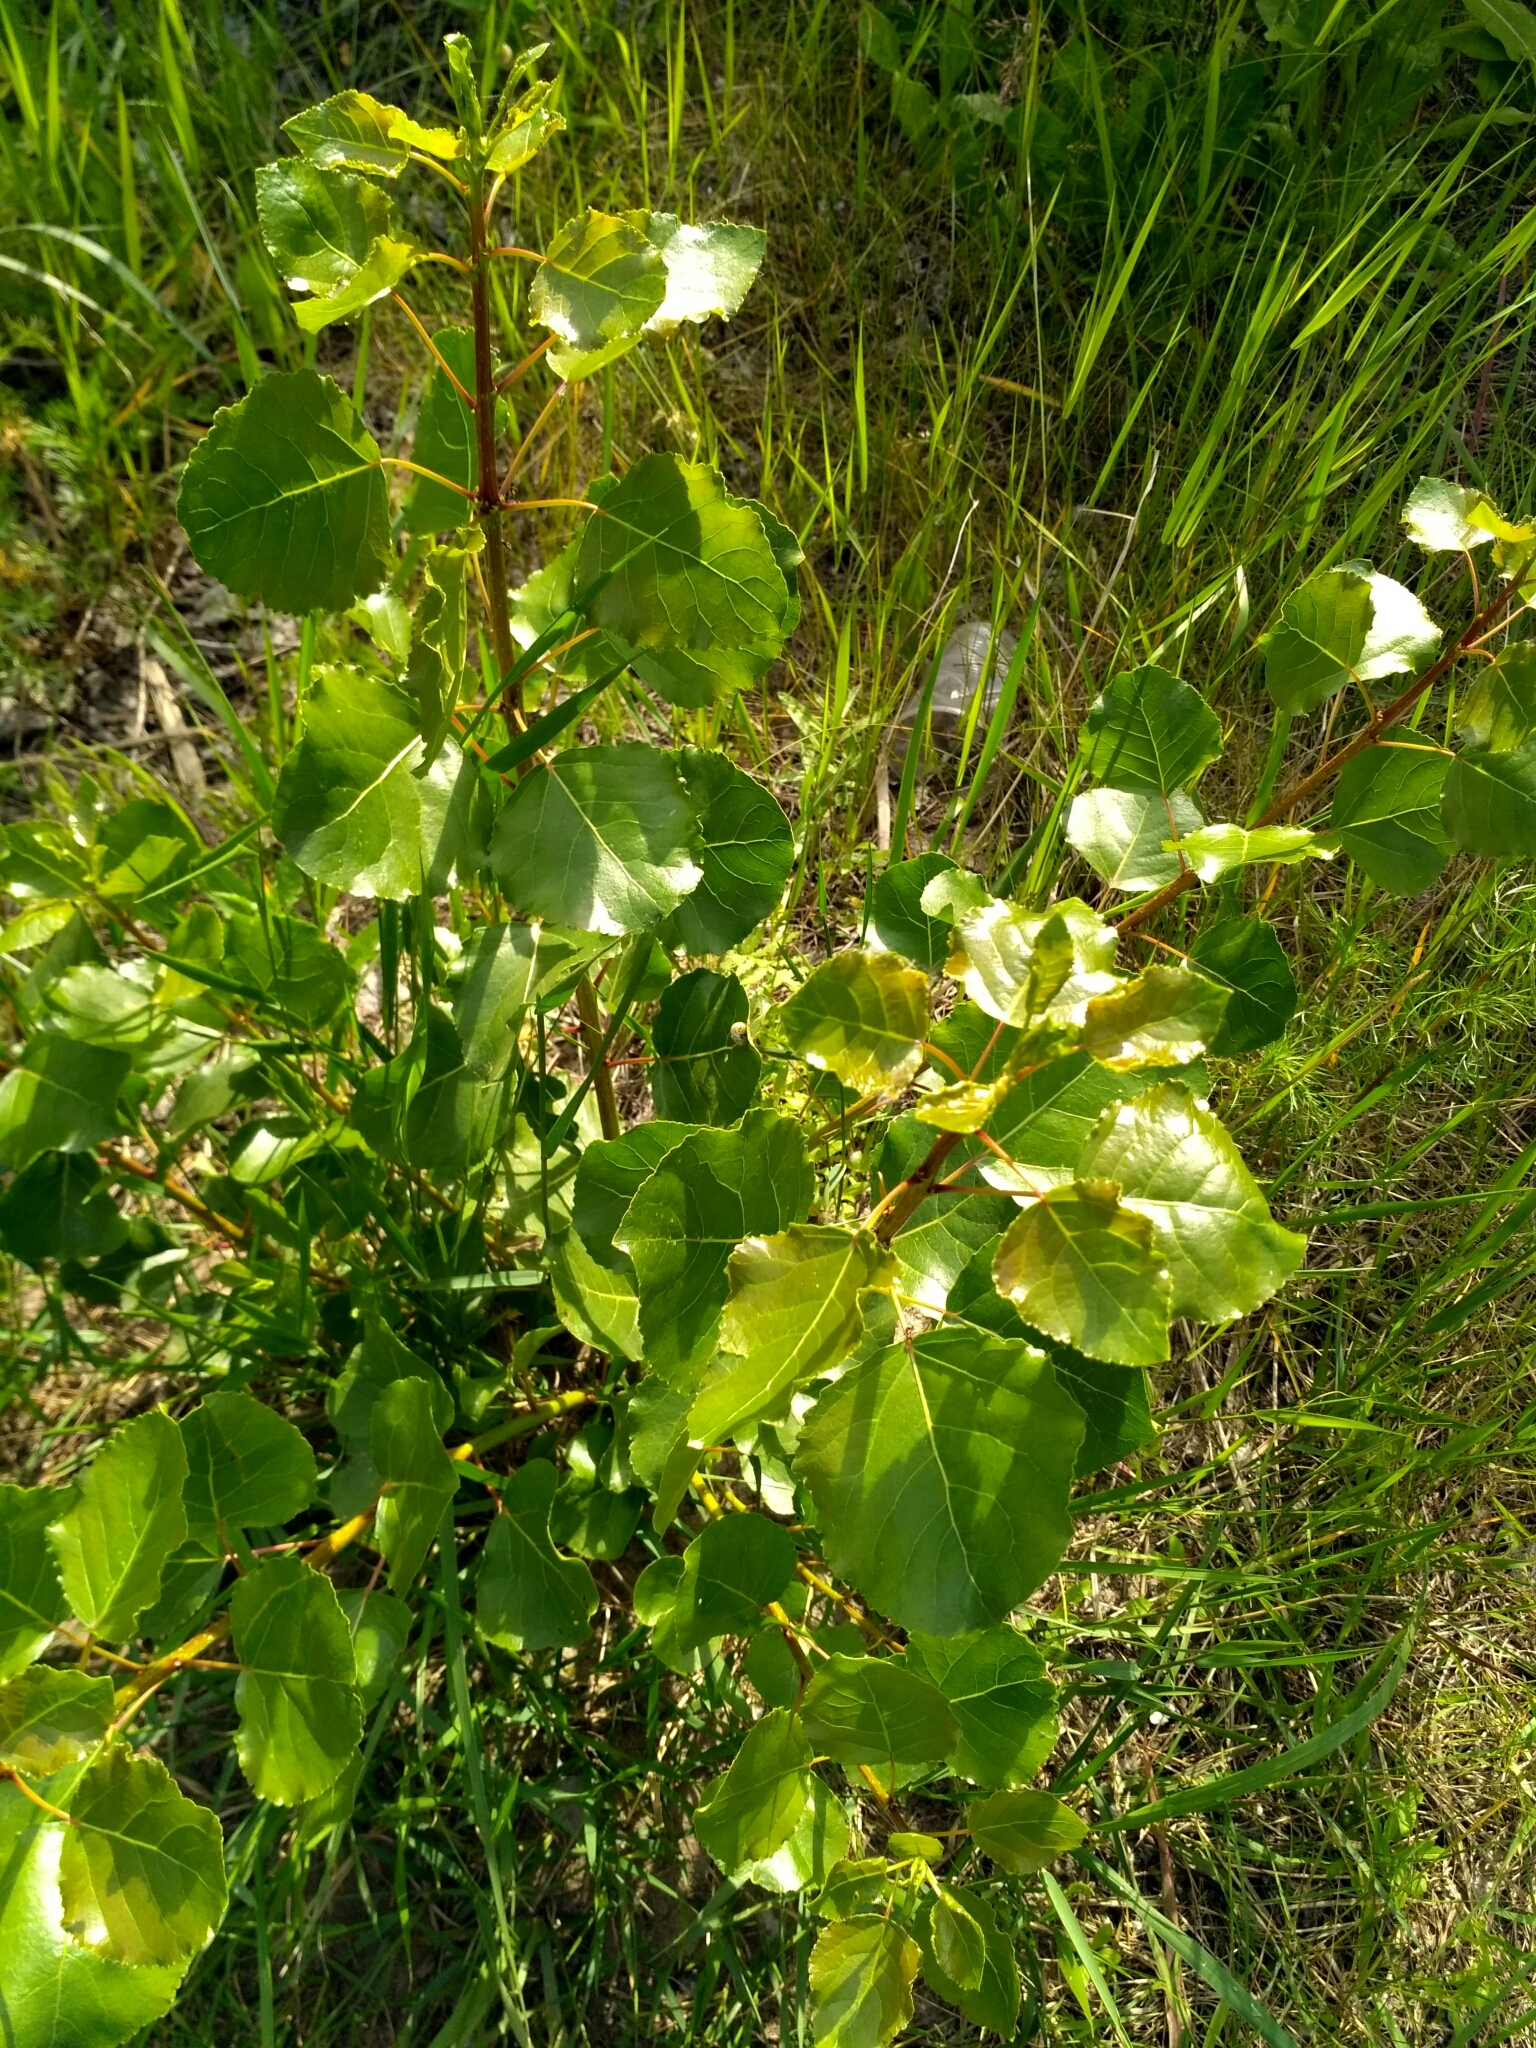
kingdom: Plantae
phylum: Tracheophyta
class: Magnoliopsida
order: Malpighiales
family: Salicaceae
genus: Populus
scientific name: Populus nigra
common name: Black poplar
